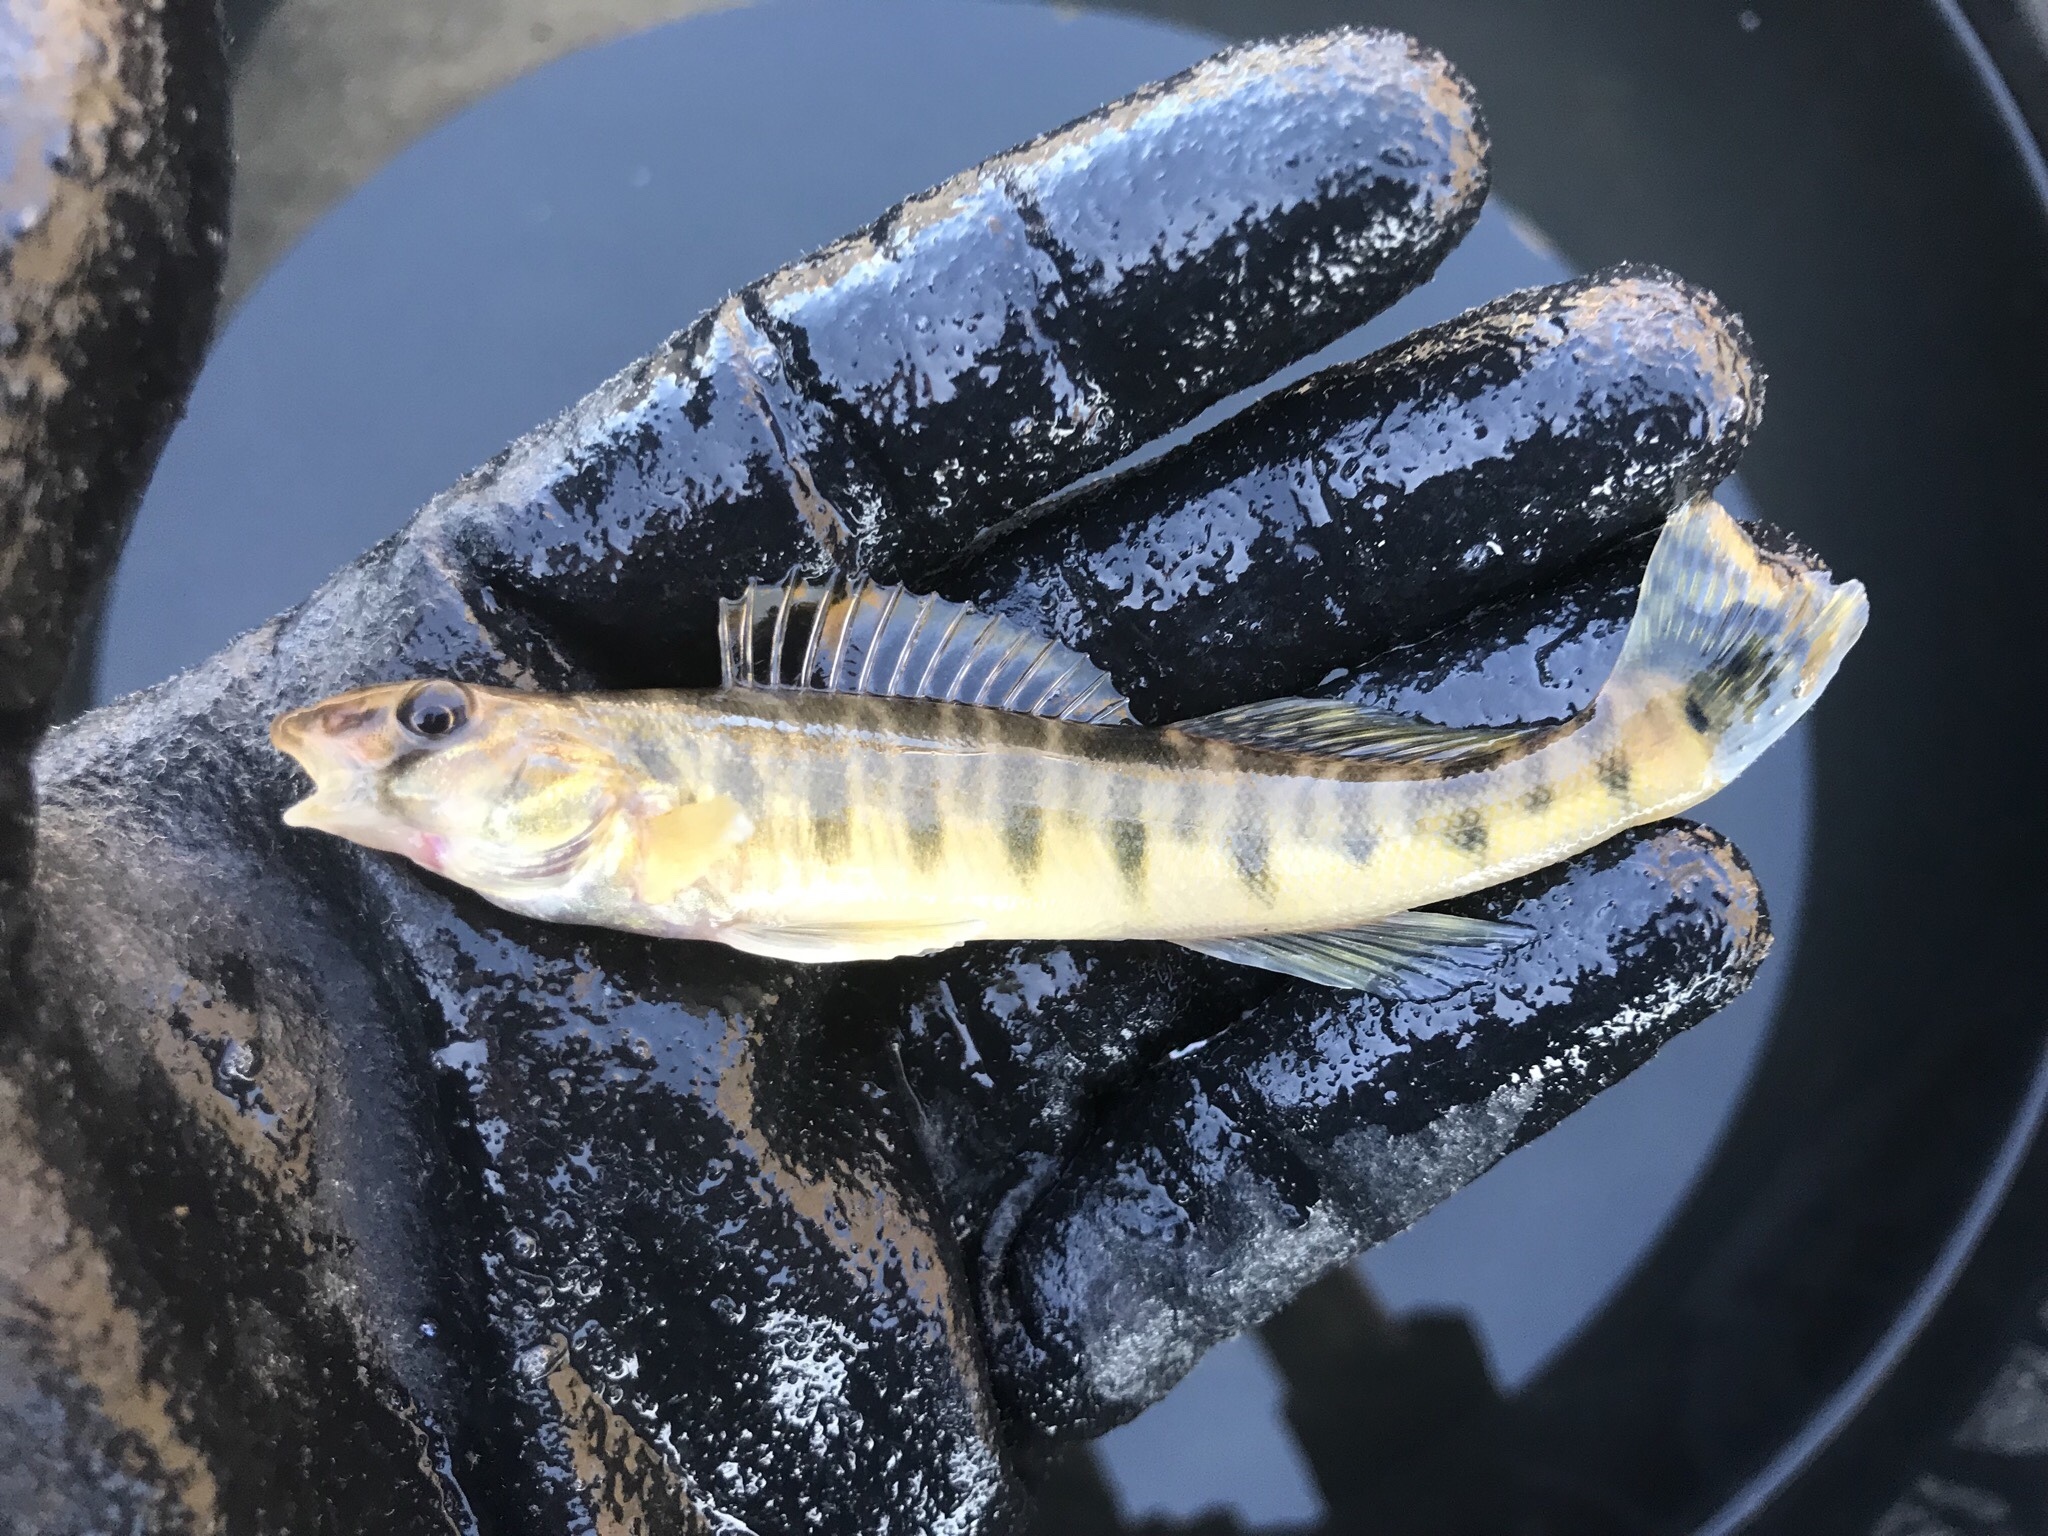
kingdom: Animalia
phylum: Chordata
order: Perciformes
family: Percidae
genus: Percina
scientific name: Percina carbonaria
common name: Texas logperch
